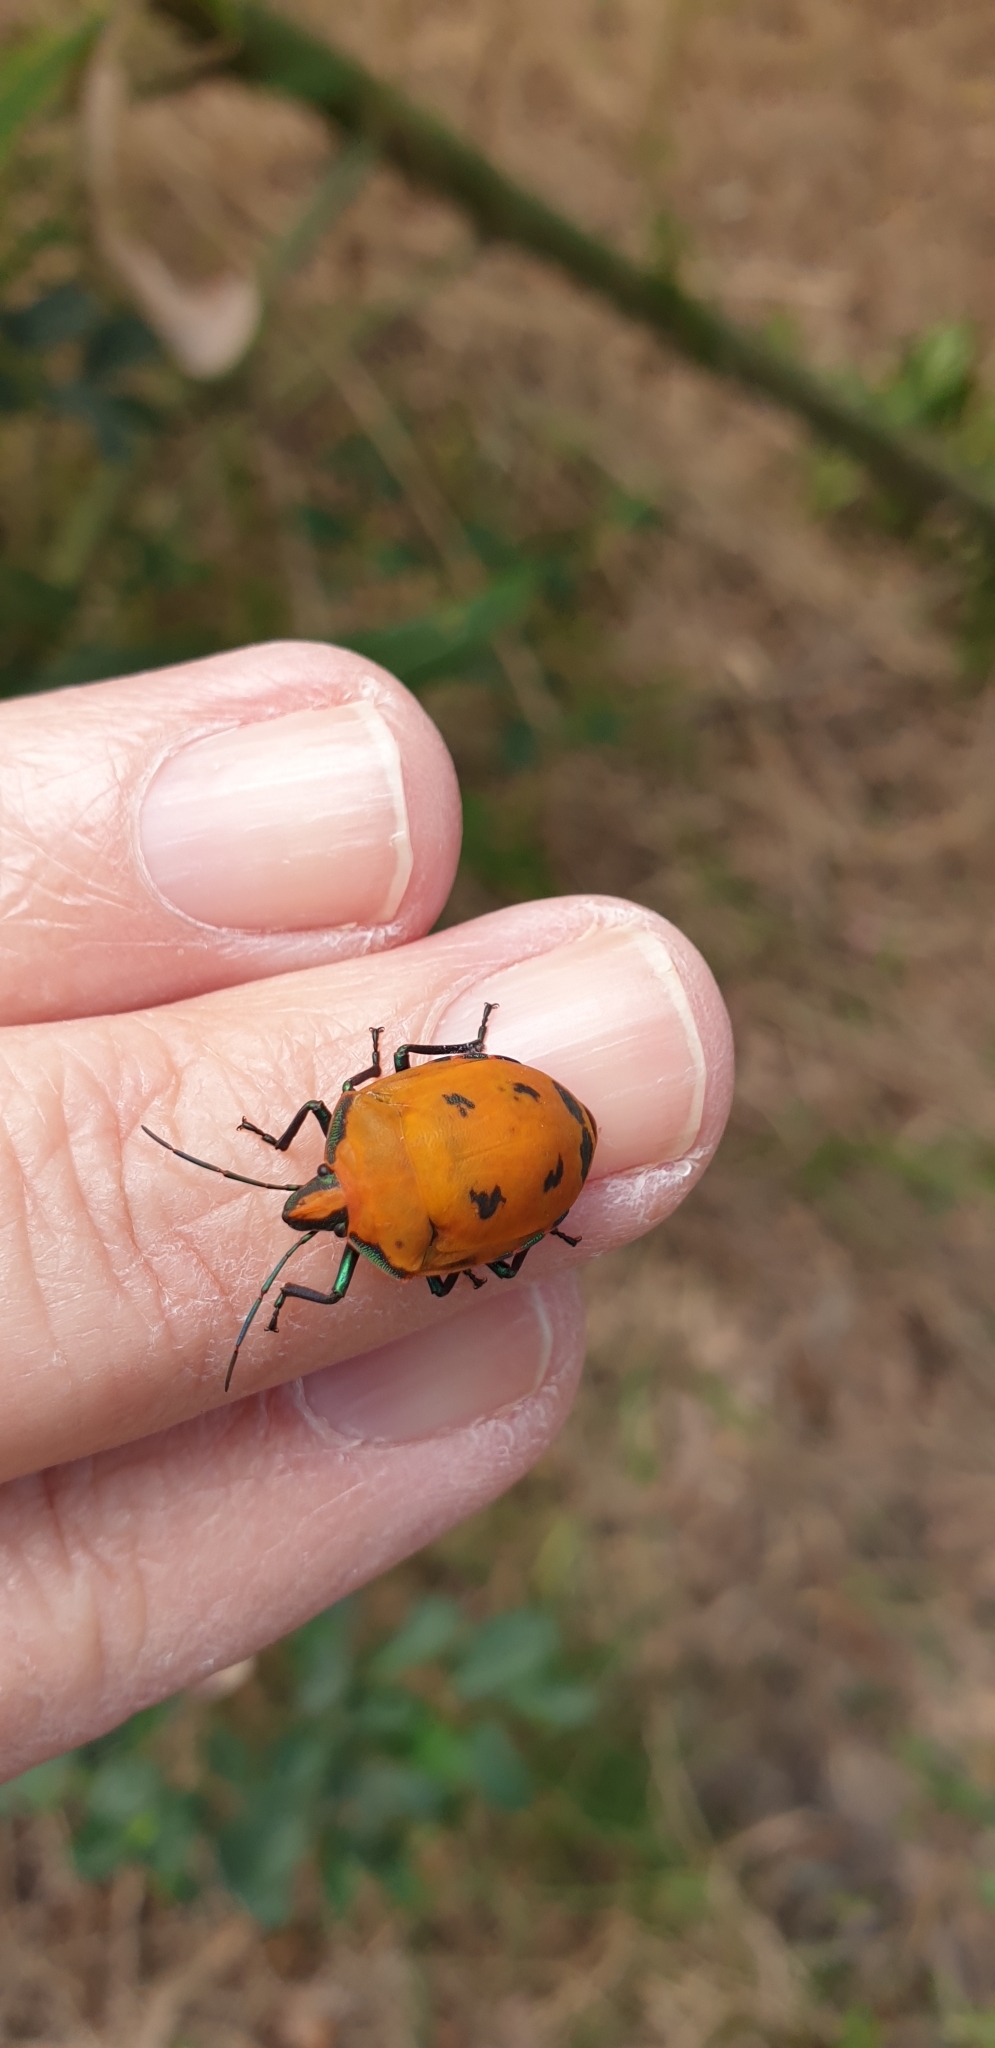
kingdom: Animalia
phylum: Arthropoda
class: Insecta
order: Hemiptera
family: Scutelleridae
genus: Tectocoris
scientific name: Tectocoris diophthalmus
